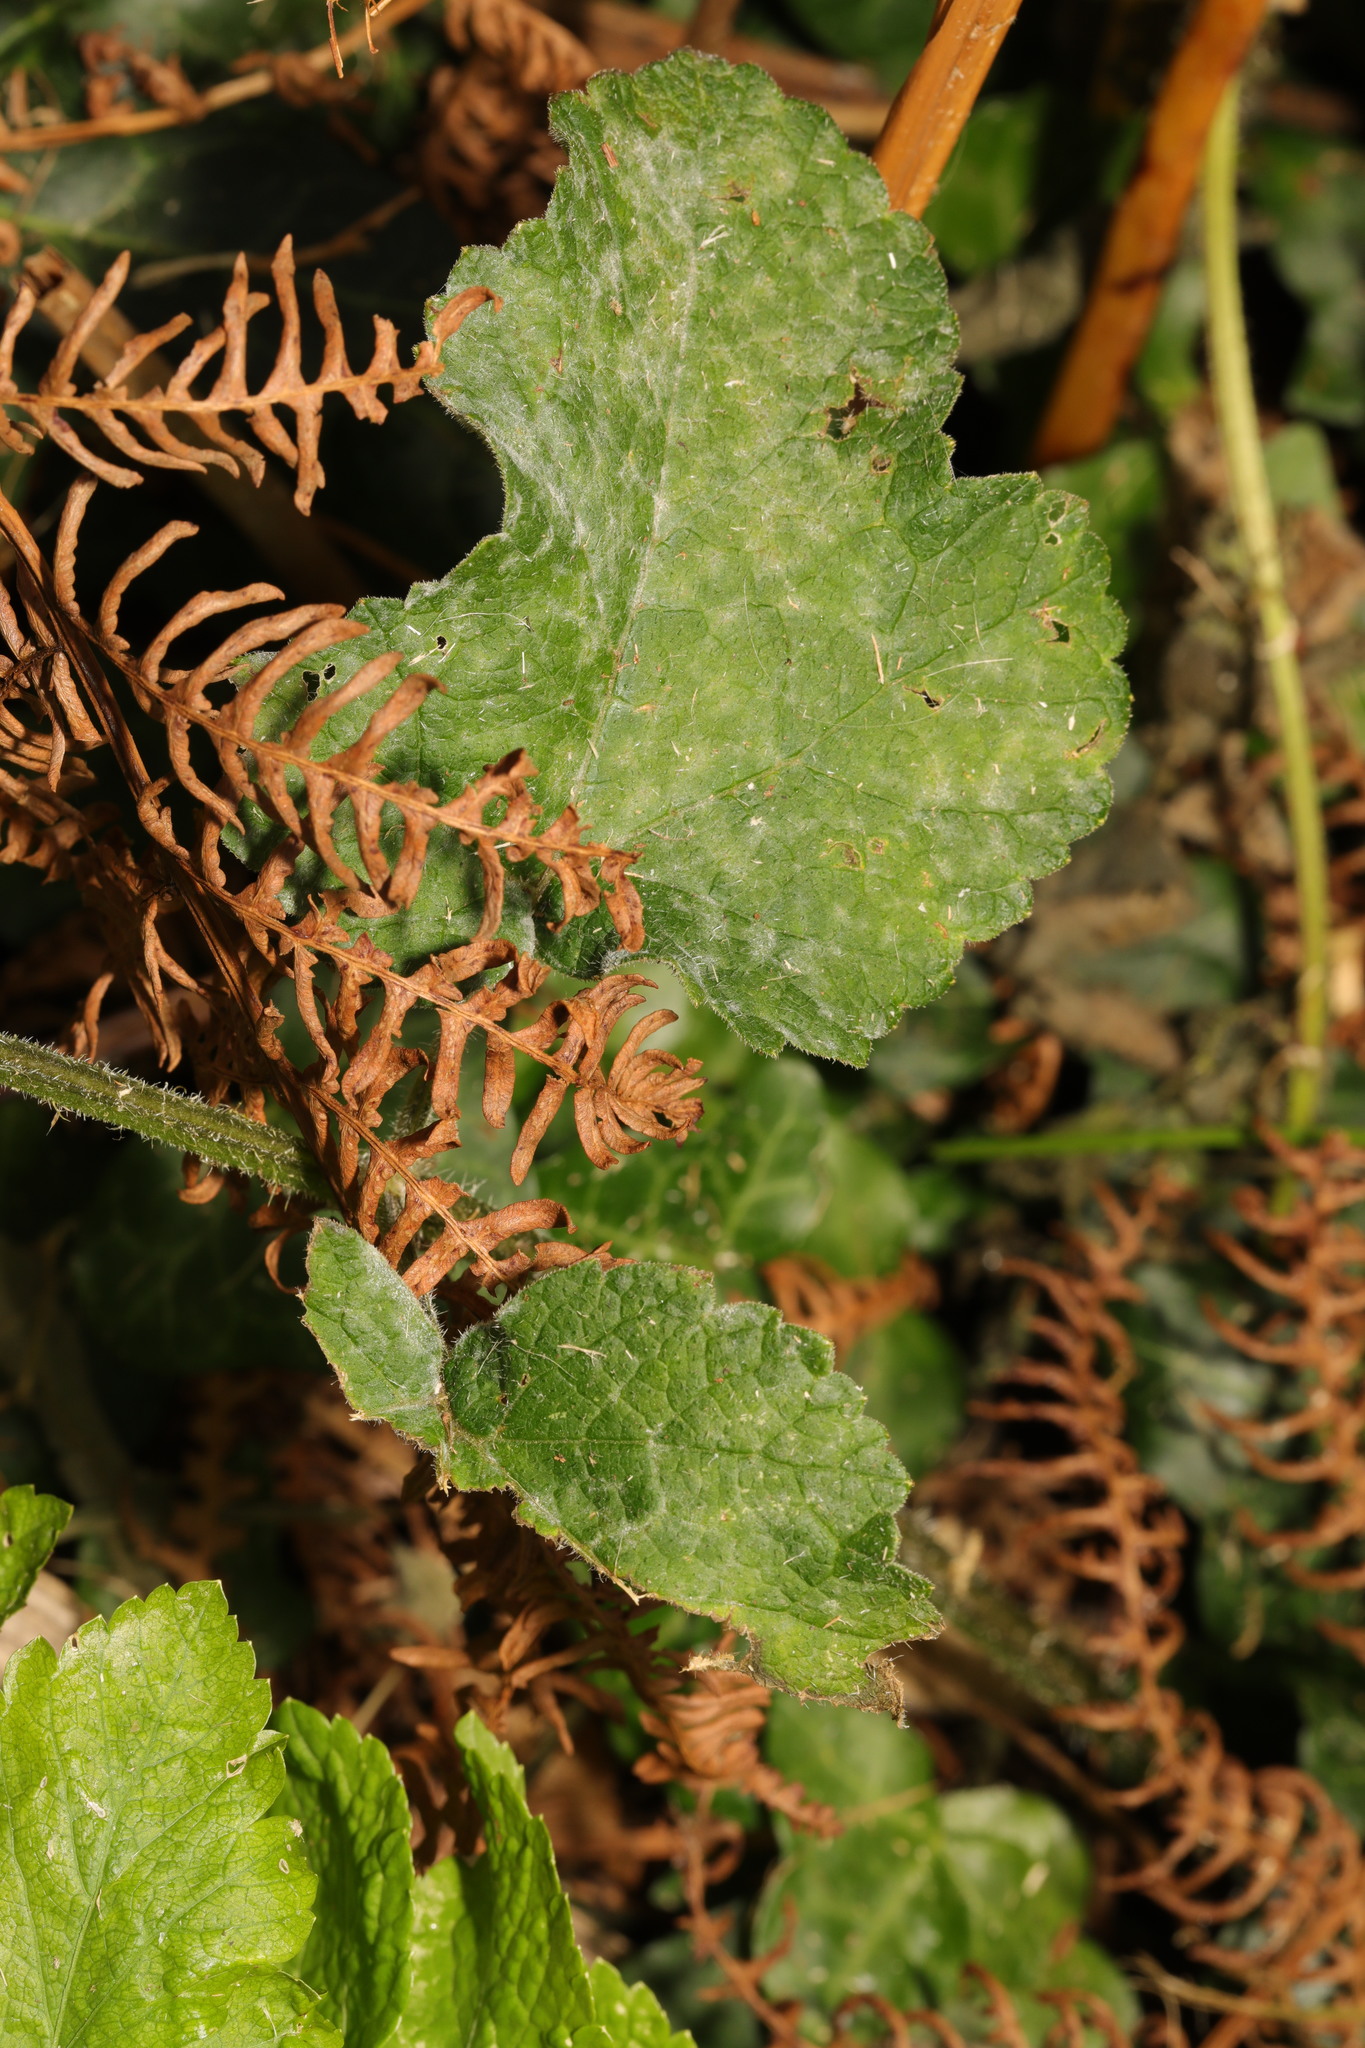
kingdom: Plantae
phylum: Tracheophyta
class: Magnoliopsida
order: Apiales
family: Apiaceae
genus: Heracleum
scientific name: Heracleum sphondylium
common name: Hogweed
